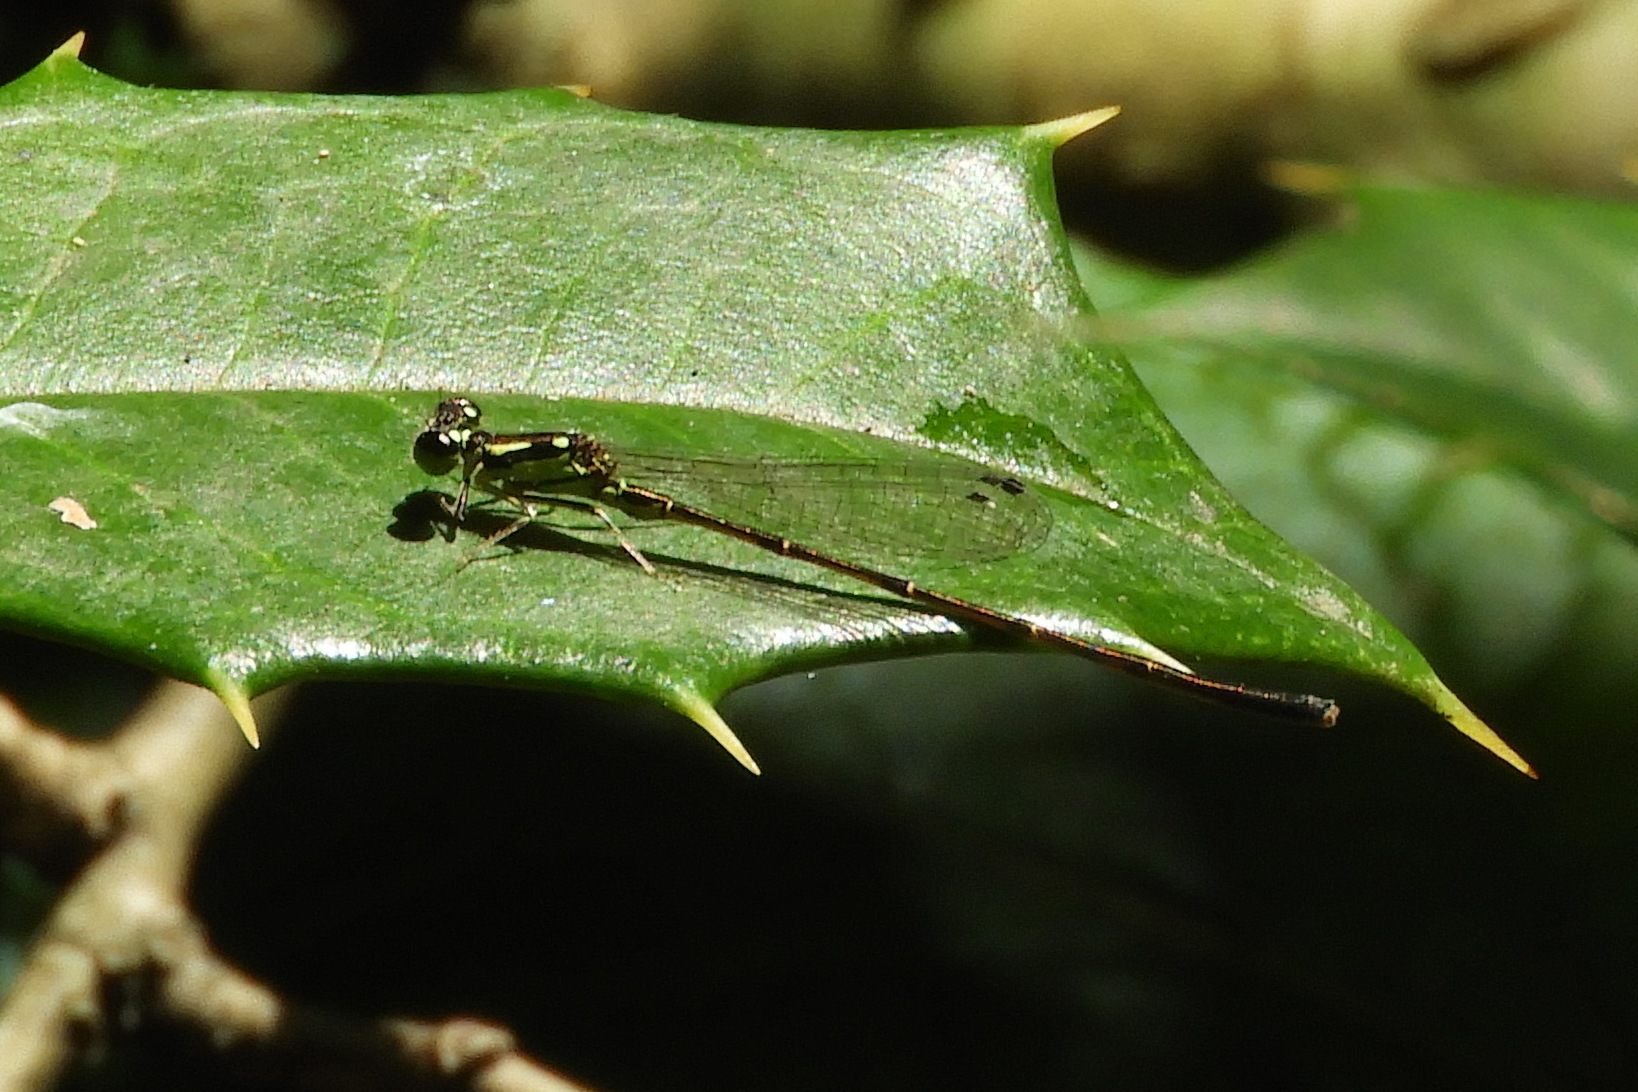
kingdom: Animalia
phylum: Arthropoda
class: Insecta
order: Odonata
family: Coenagrionidae
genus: Ischnura
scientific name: Ischnura posita
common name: Fragile forktail
